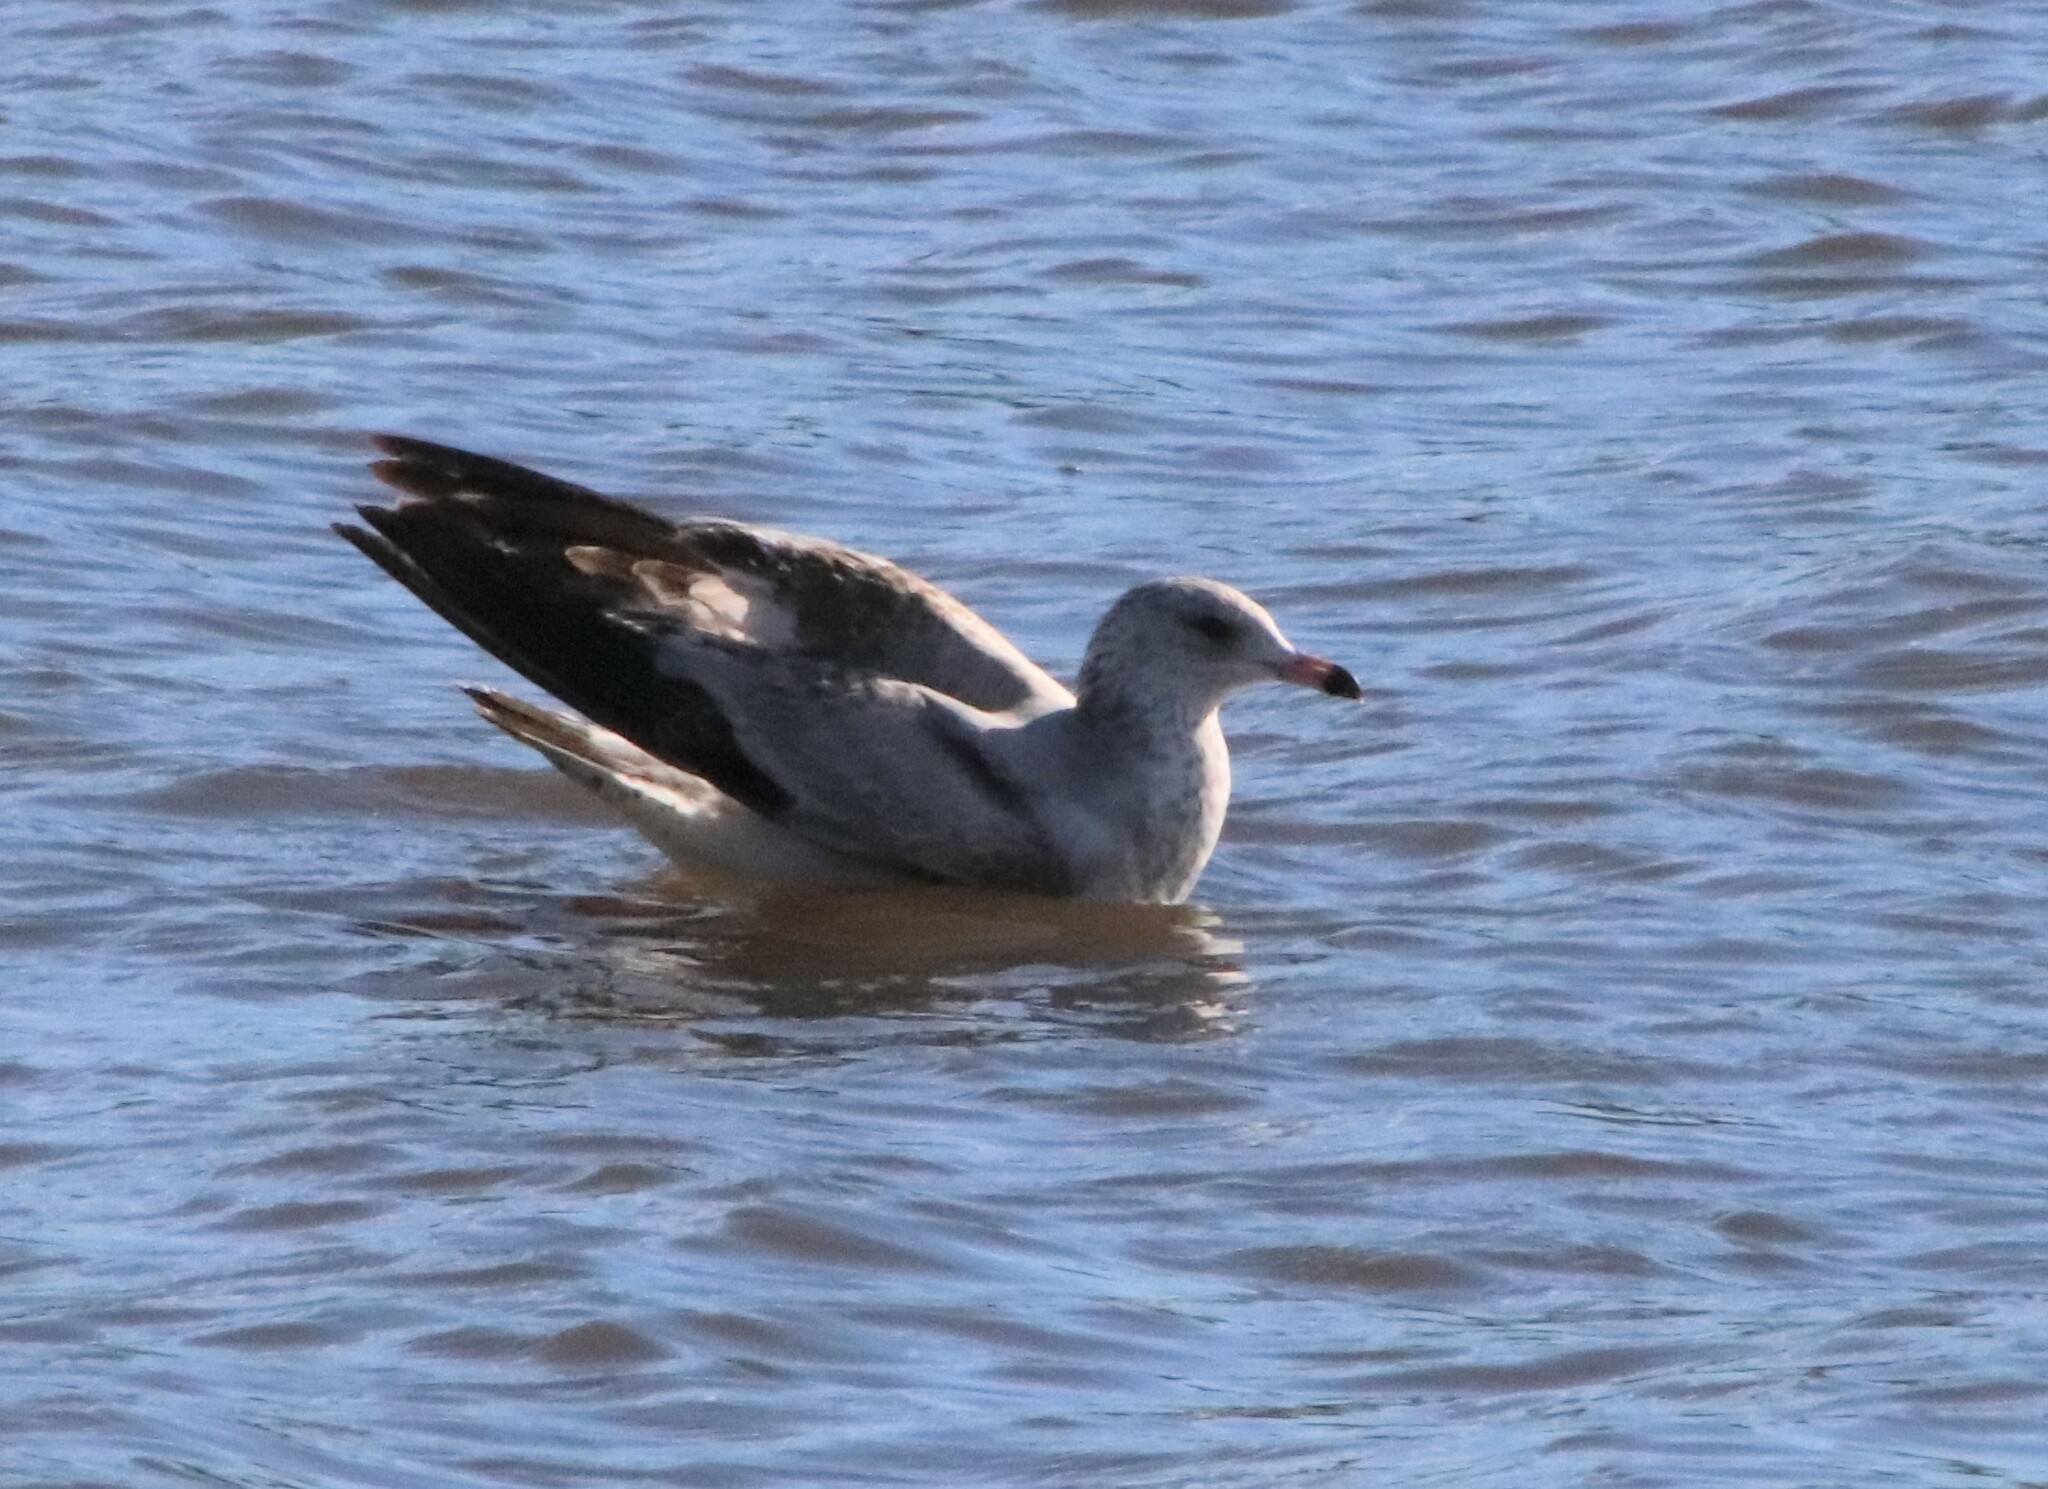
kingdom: Animalia
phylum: Chordata
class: Aves
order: Charadriiformes
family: Laridae
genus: Larus
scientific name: Larus californicus
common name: California gull
